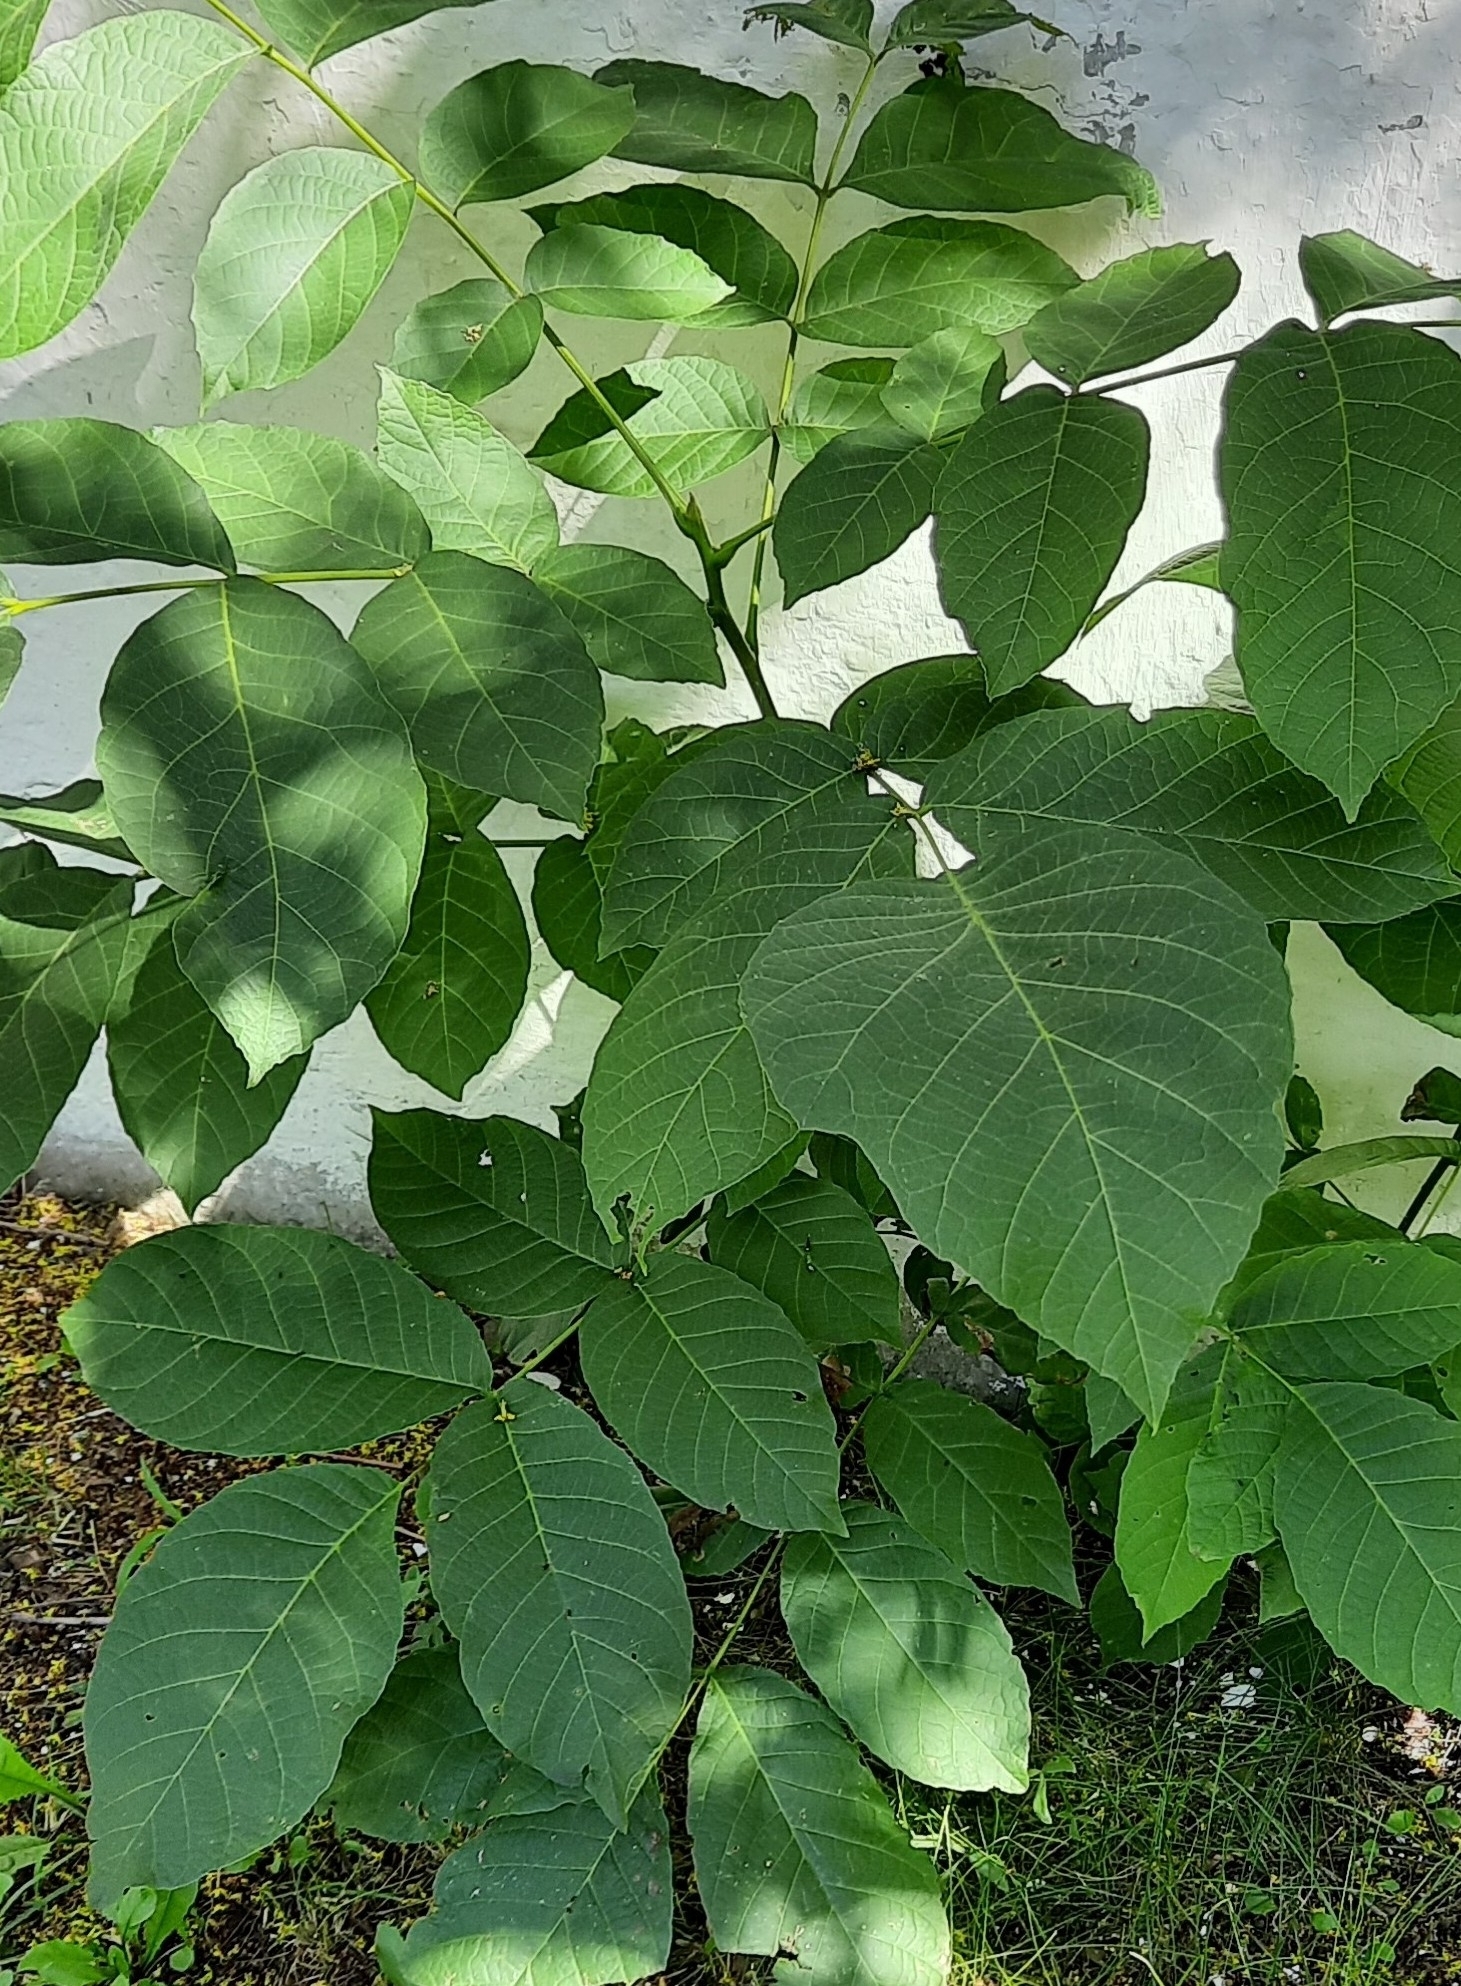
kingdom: Plantae
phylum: Tracheophyta
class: Magnoliopsida
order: Fagales
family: Juglandaceae
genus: Juglans
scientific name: Juglans regia
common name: Walnut
